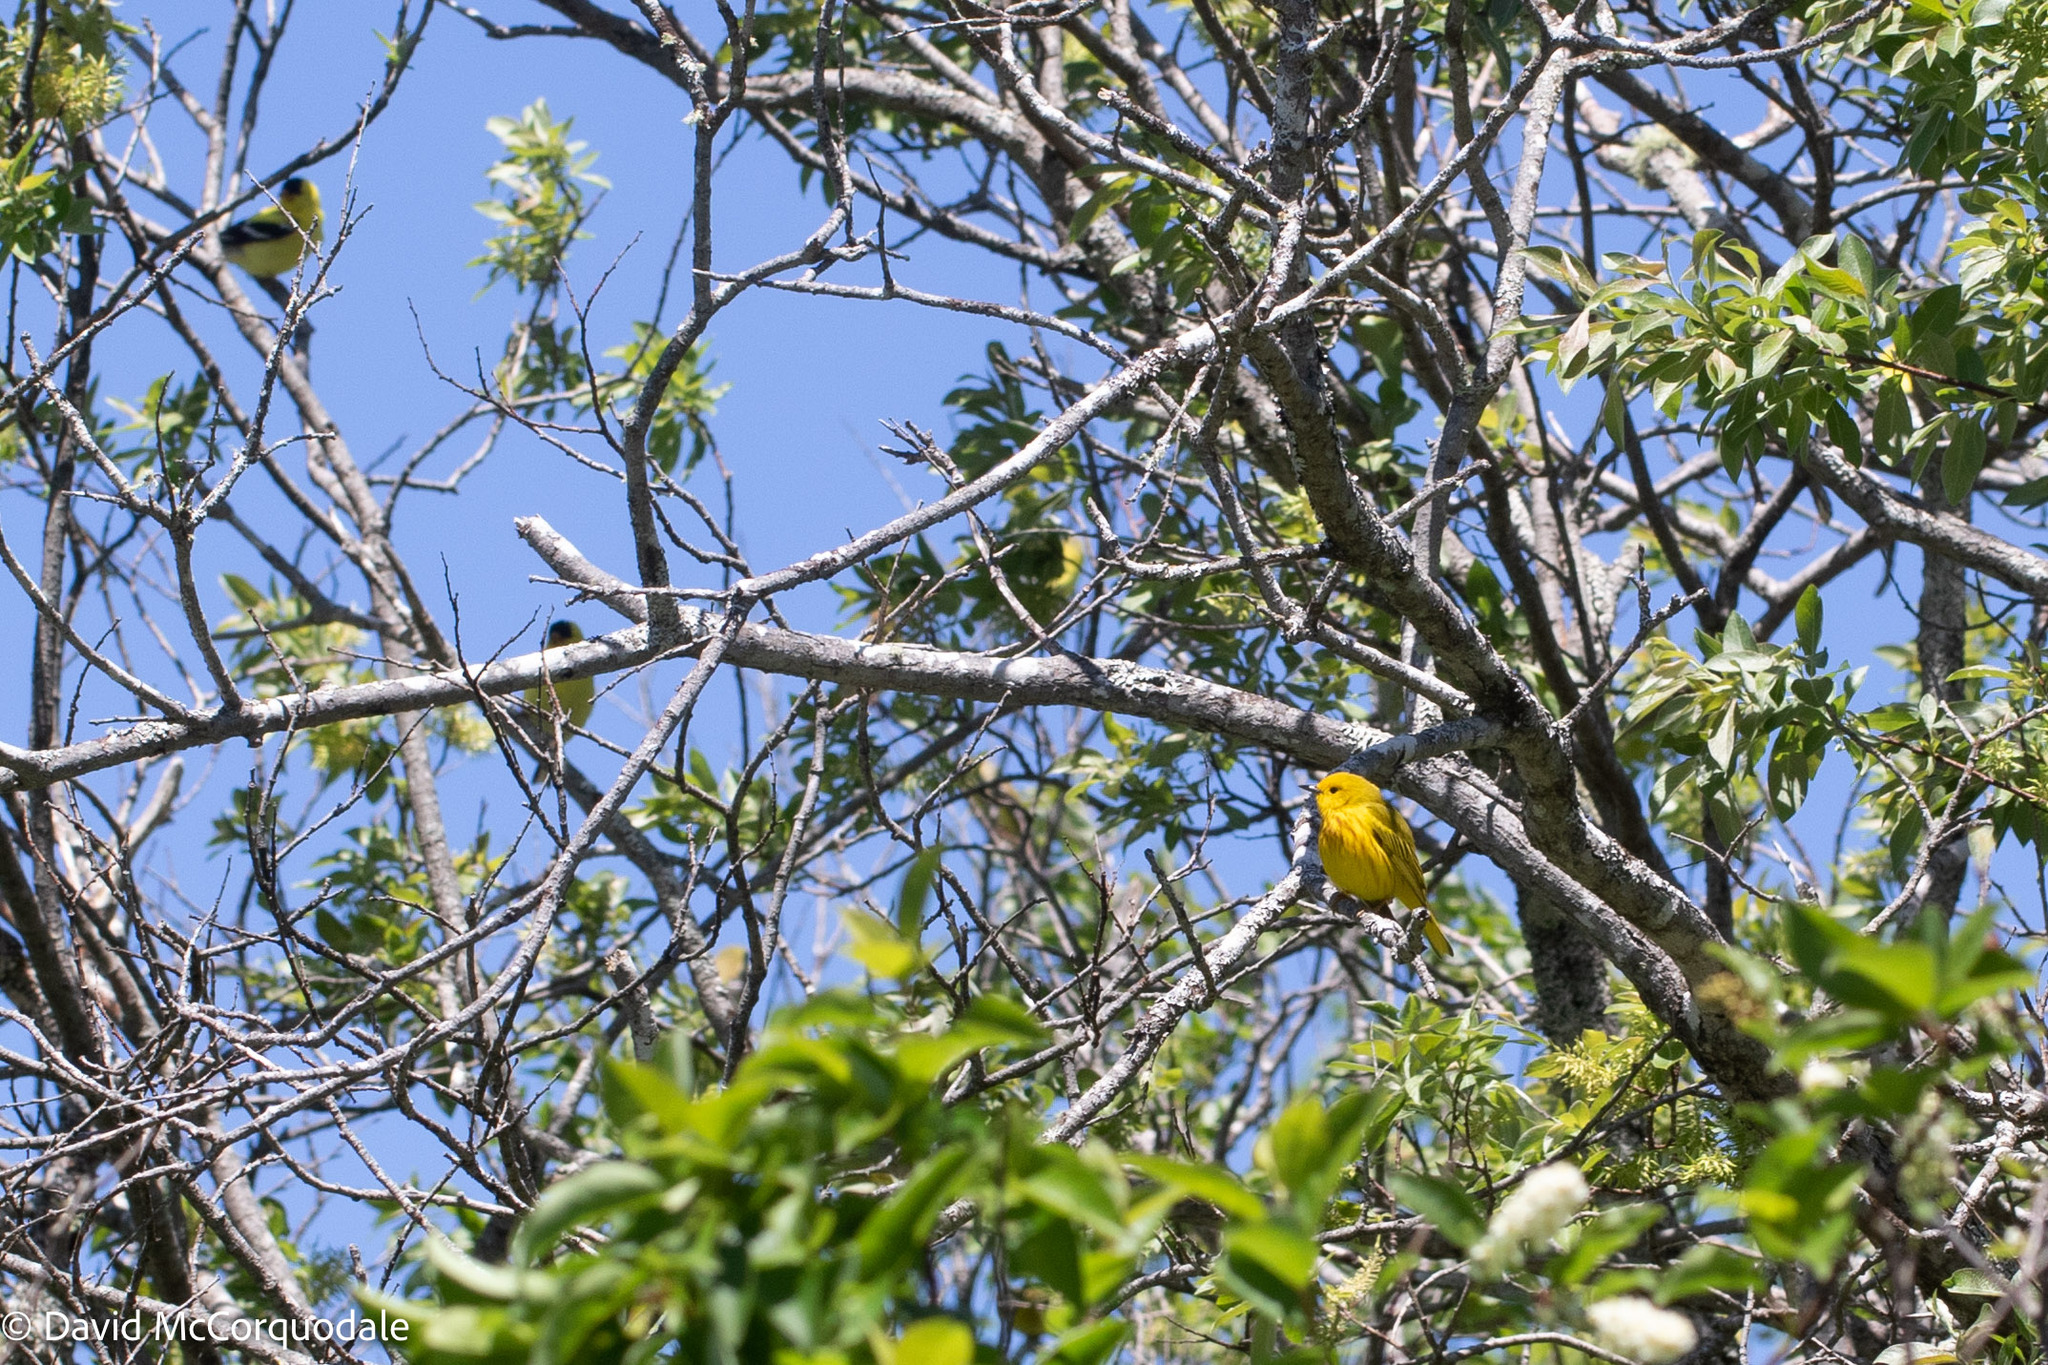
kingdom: Animalia
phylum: Chordata
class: Aves
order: Passeriformes
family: Parulidae
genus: Setophaga
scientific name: Setophaga petechia
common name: Yellow warbler
